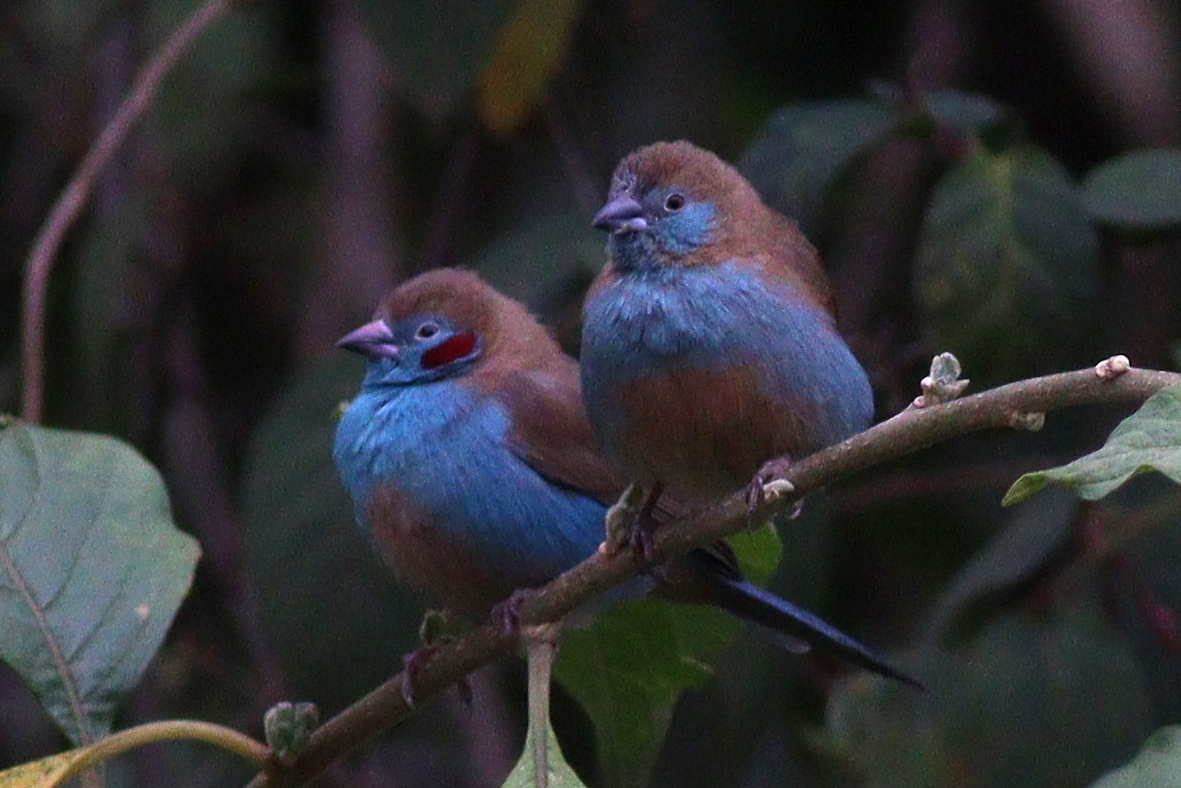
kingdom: Animalia
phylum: Chordata
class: Aves
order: Passeriformes
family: Estrildidae
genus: Uraeginthus
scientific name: Uraeginthus bengalus
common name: Red-cheeked cordon-bleu
